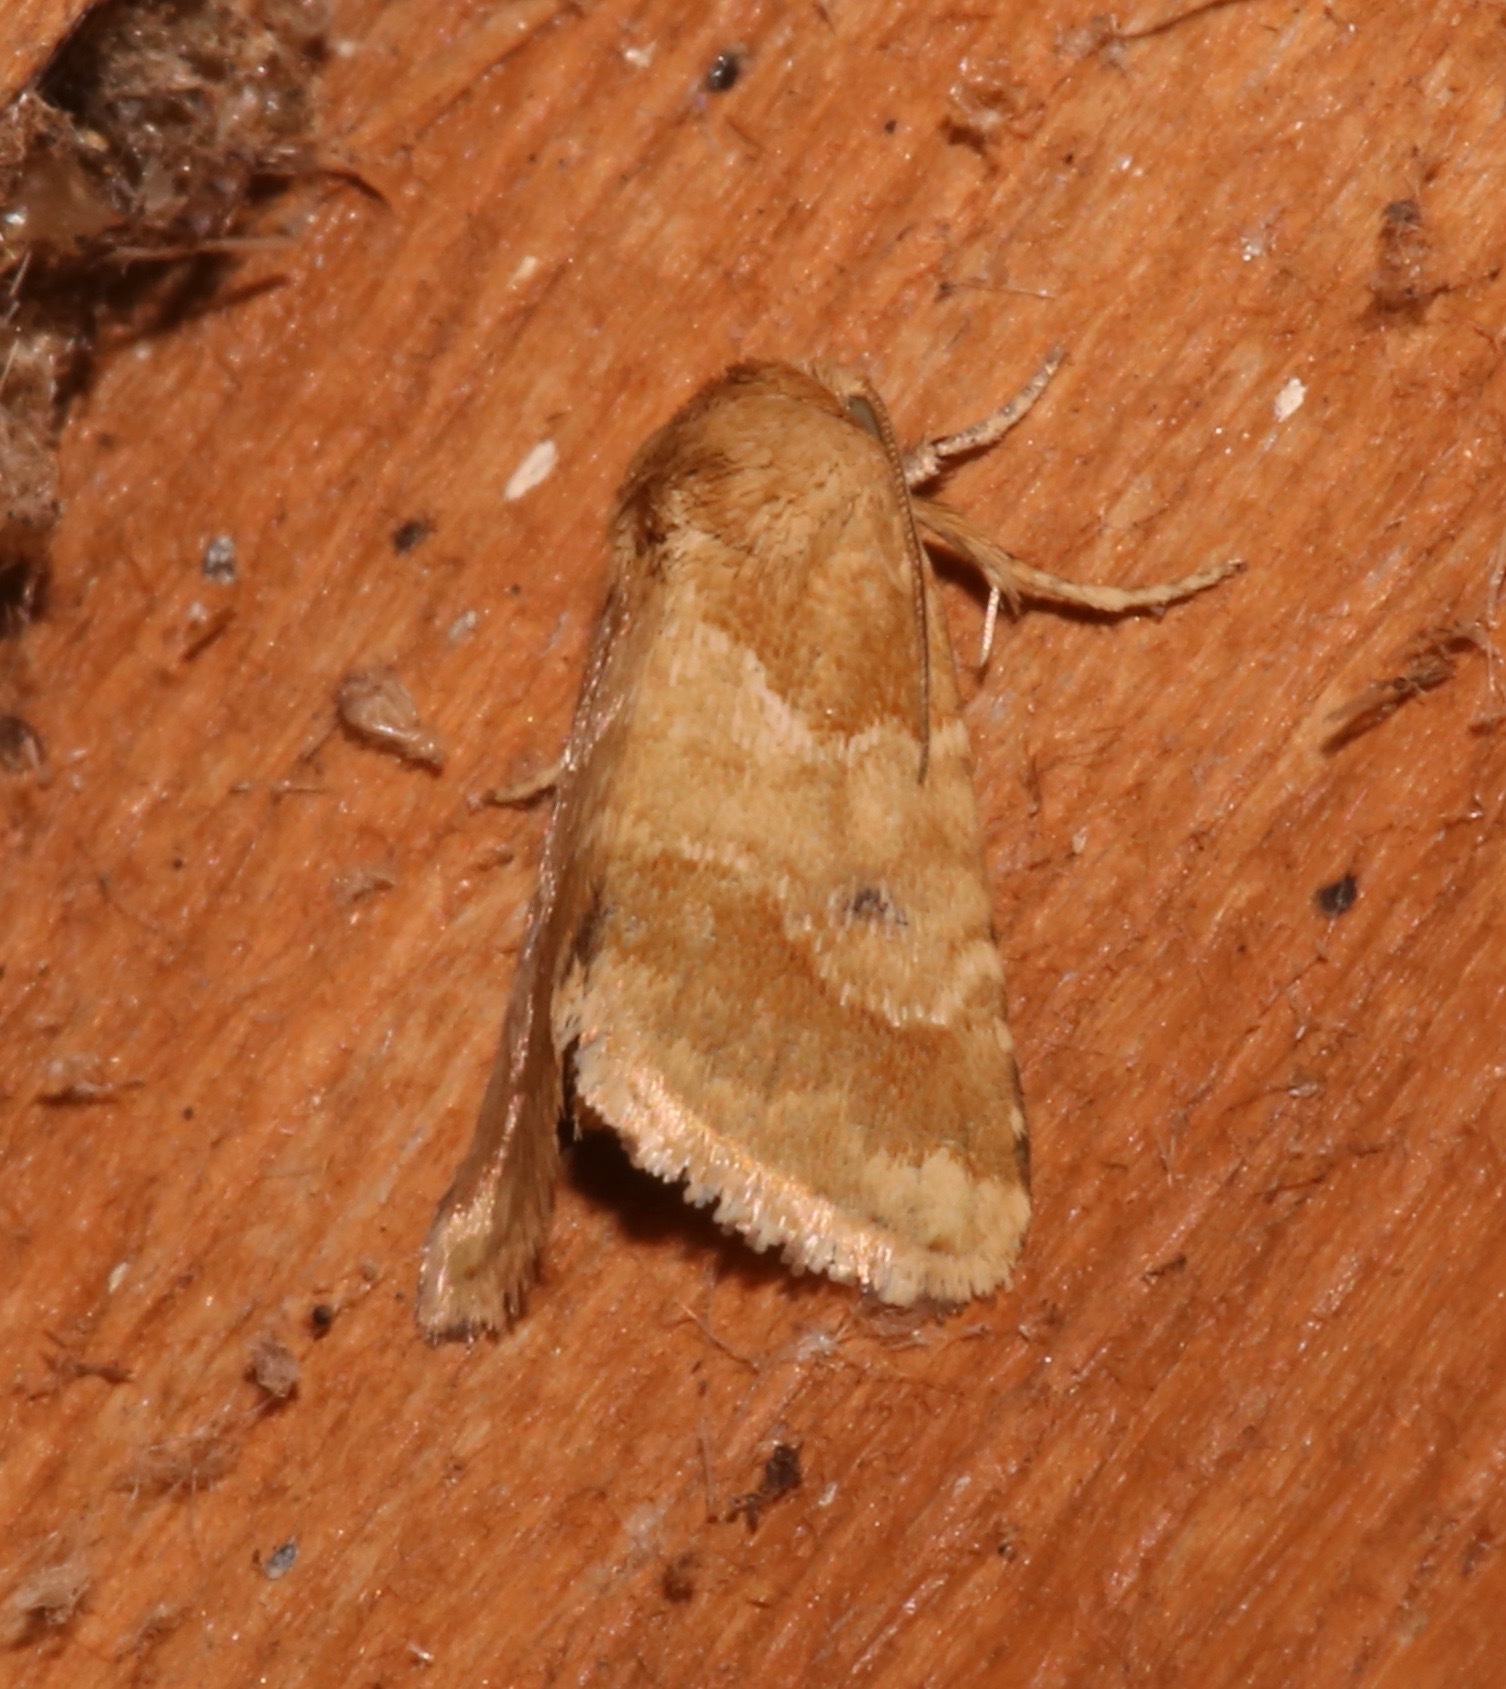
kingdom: Animalia
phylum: Arthropoda
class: Insecta
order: Lepidoptera
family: Noctuidae
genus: Schinia
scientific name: Schinia sordida
